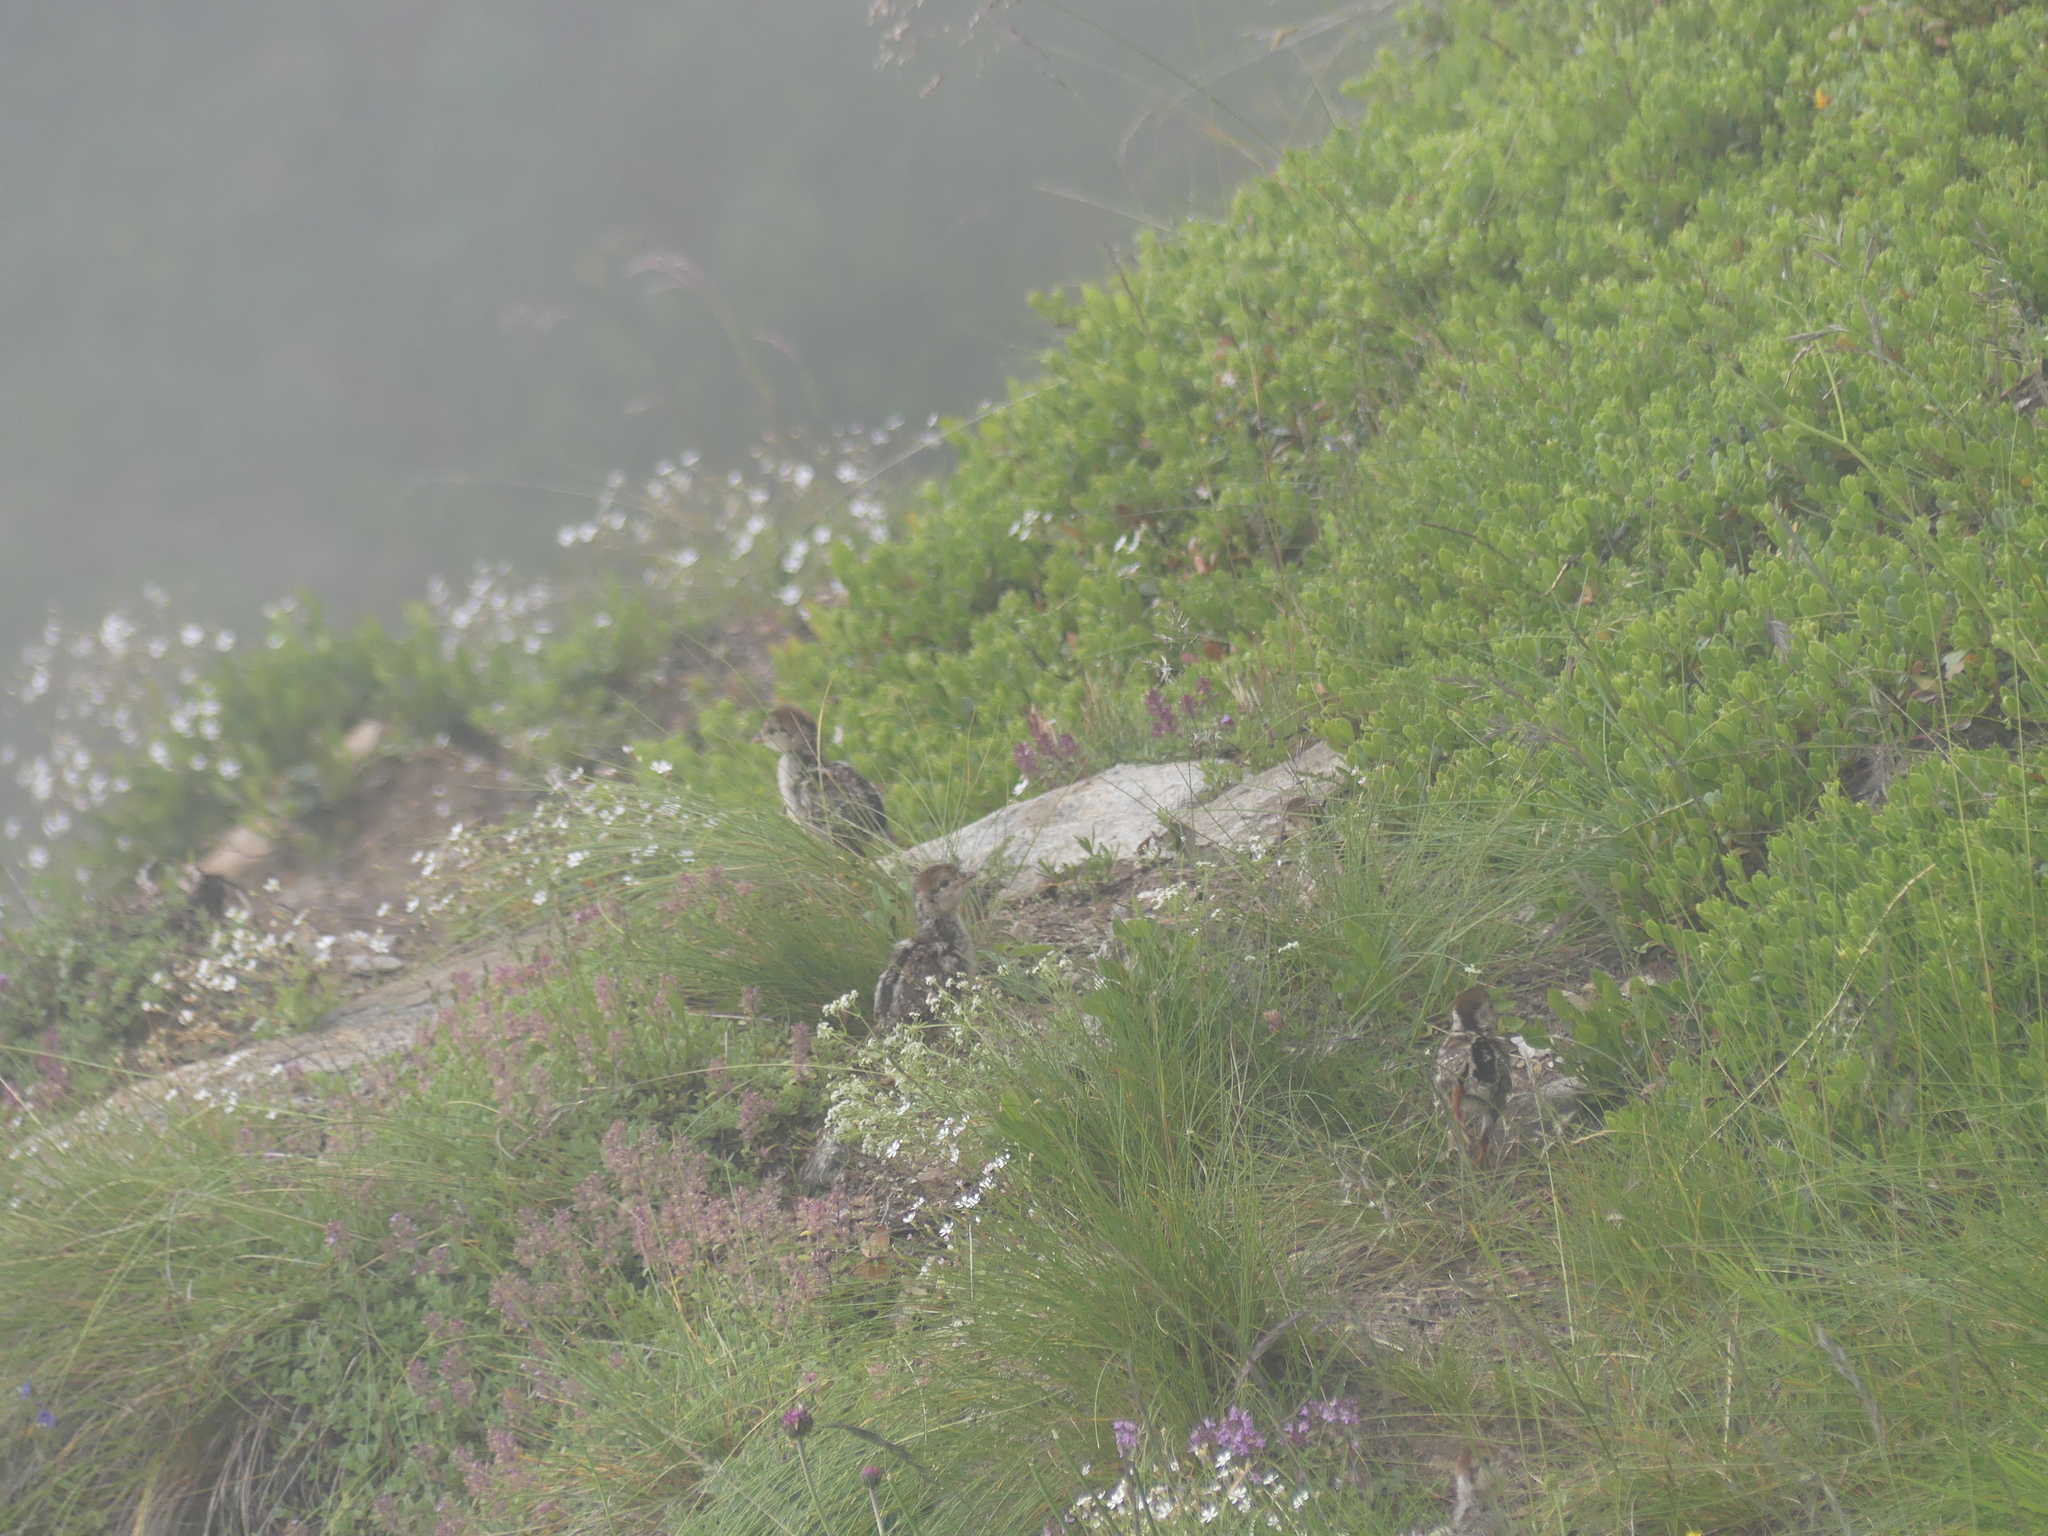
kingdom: Animalia
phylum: Chordata
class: Aves
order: Galliformes
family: Phasianidae
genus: Alectoris
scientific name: Alectoris graeca
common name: Rock partridge
